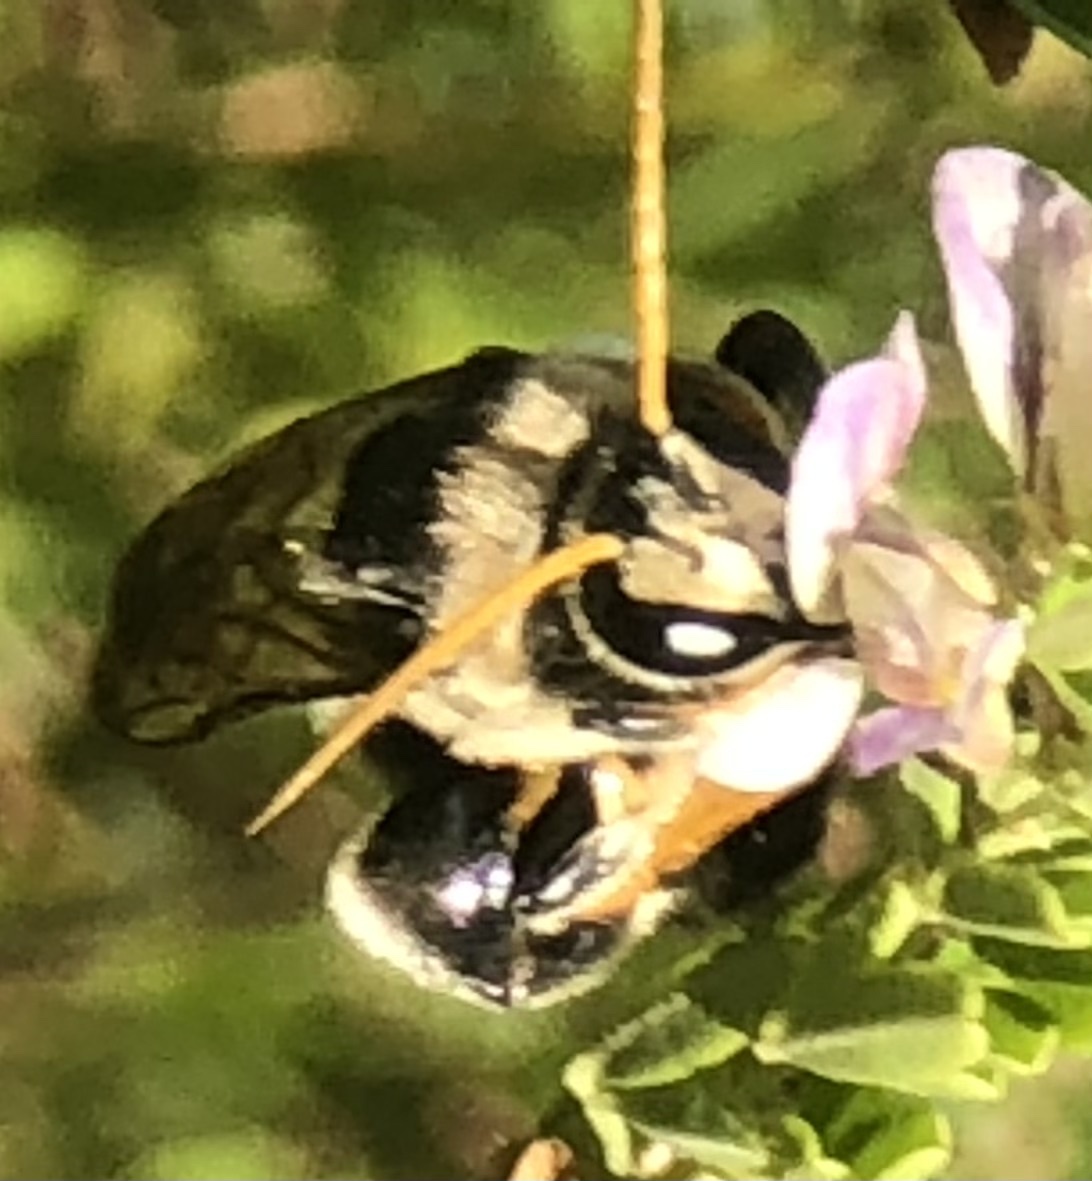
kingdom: Animalia
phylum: Arthropoda
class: Insecta
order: Hymenoptera
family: Halictidae
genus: Nomia
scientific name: Nomia nortoni
